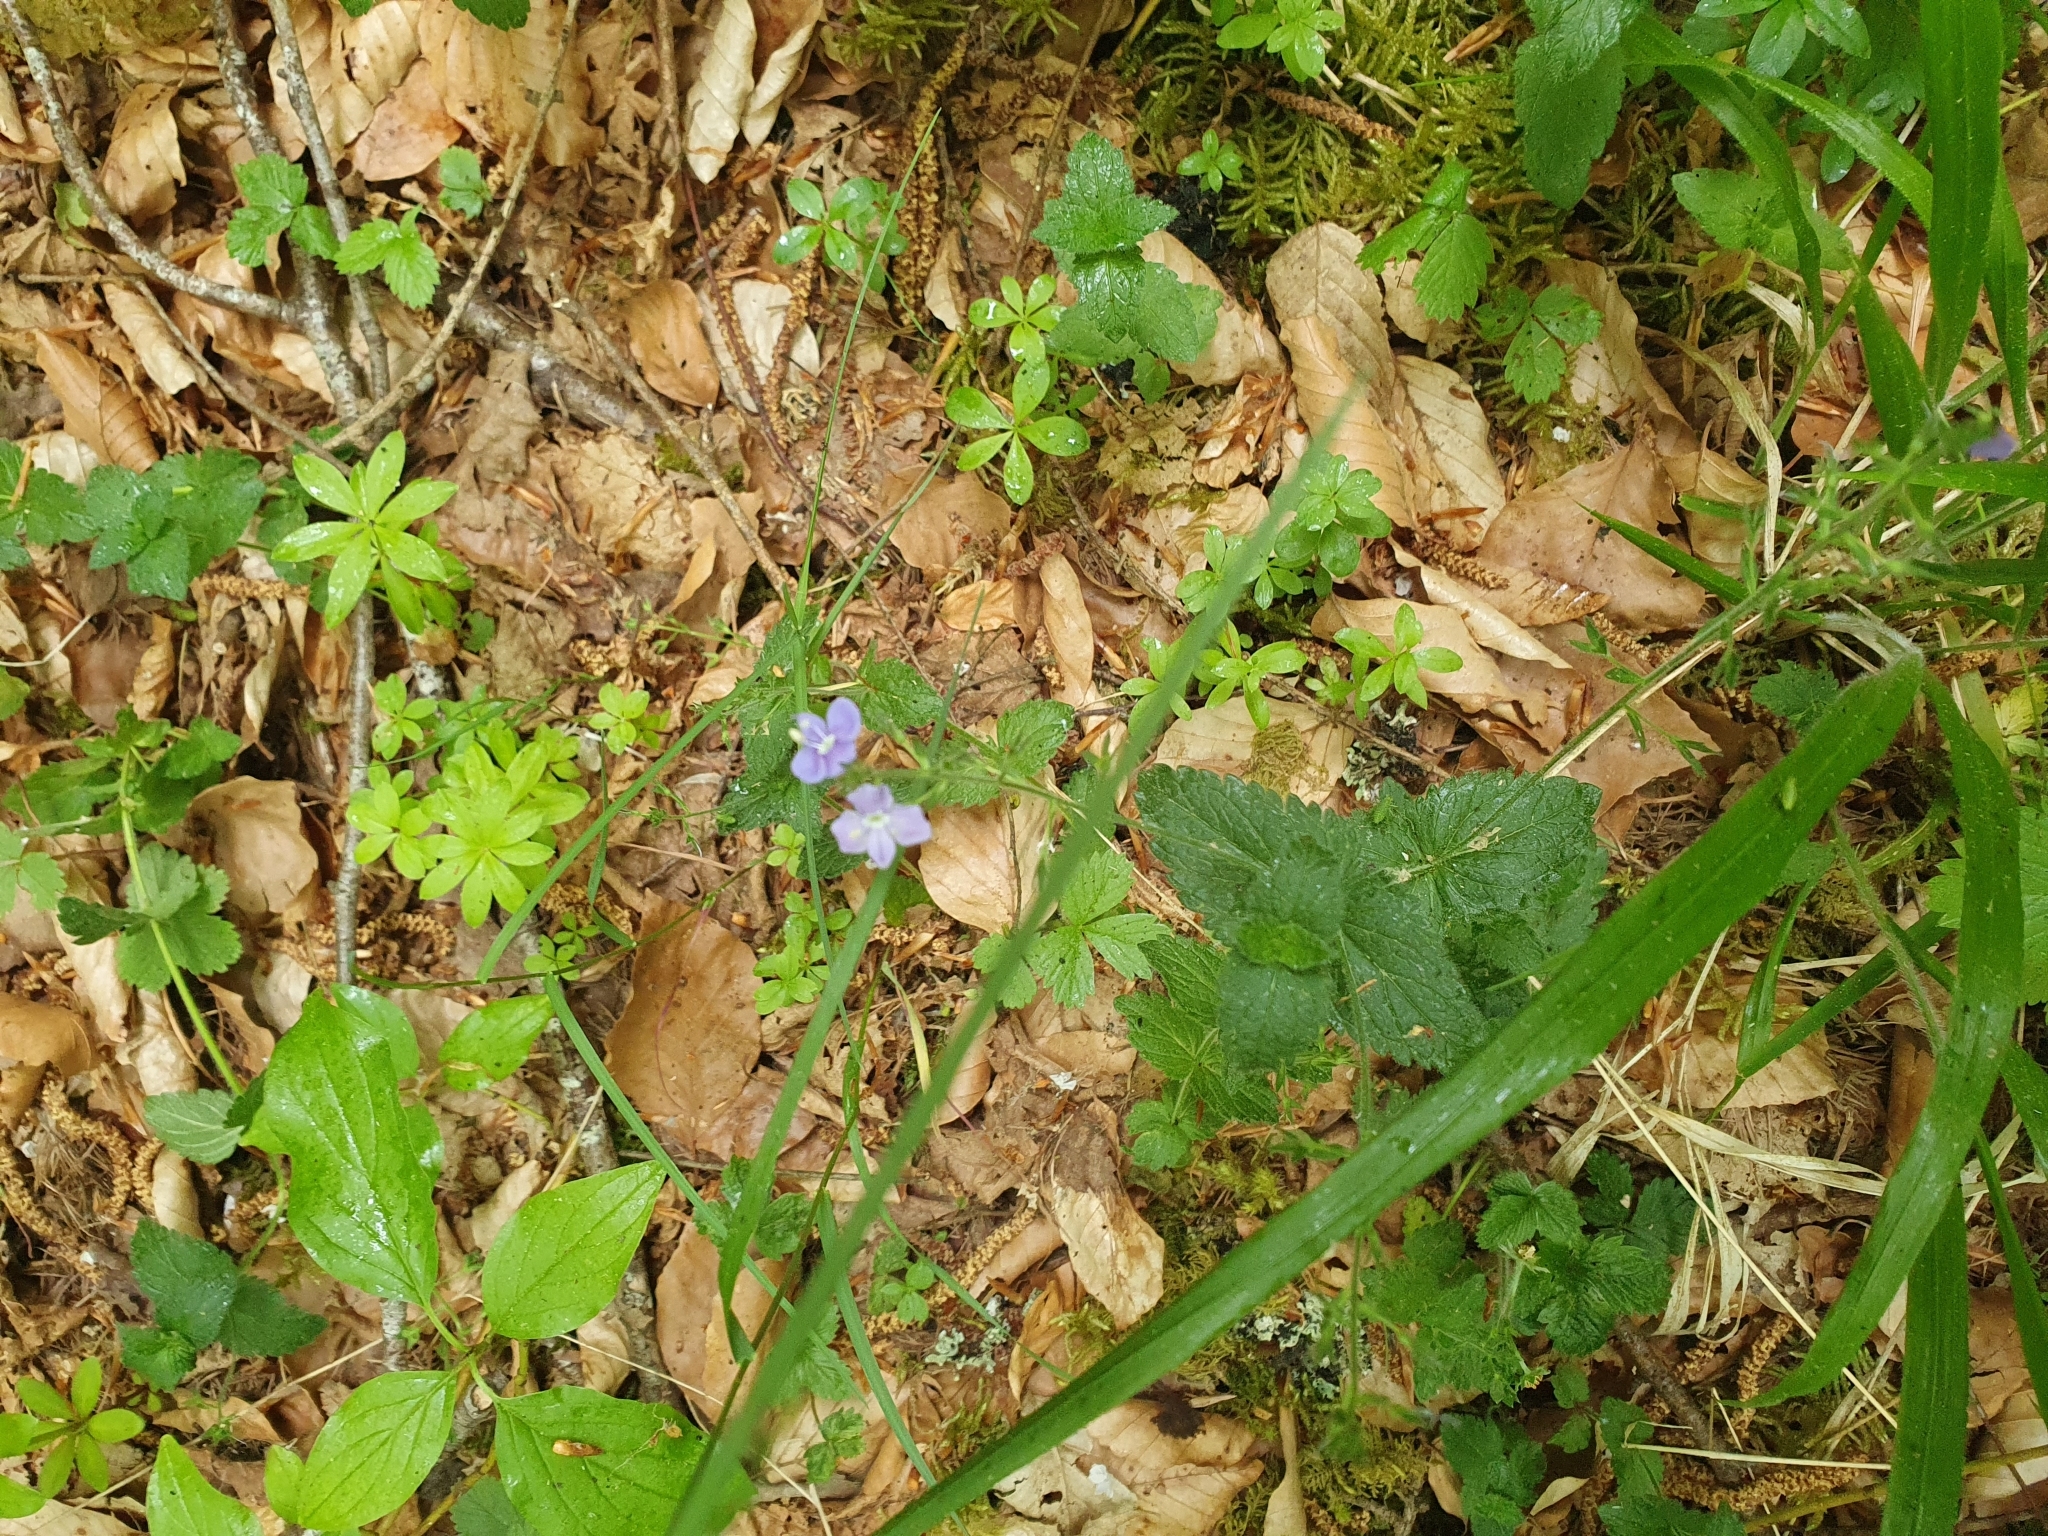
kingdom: Plantae
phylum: Tracheophyta
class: Magnoliopsida
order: Lamiales
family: Plantaginaceae
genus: Veronica
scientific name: Veronica chamaedrys
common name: Germander speedwell
